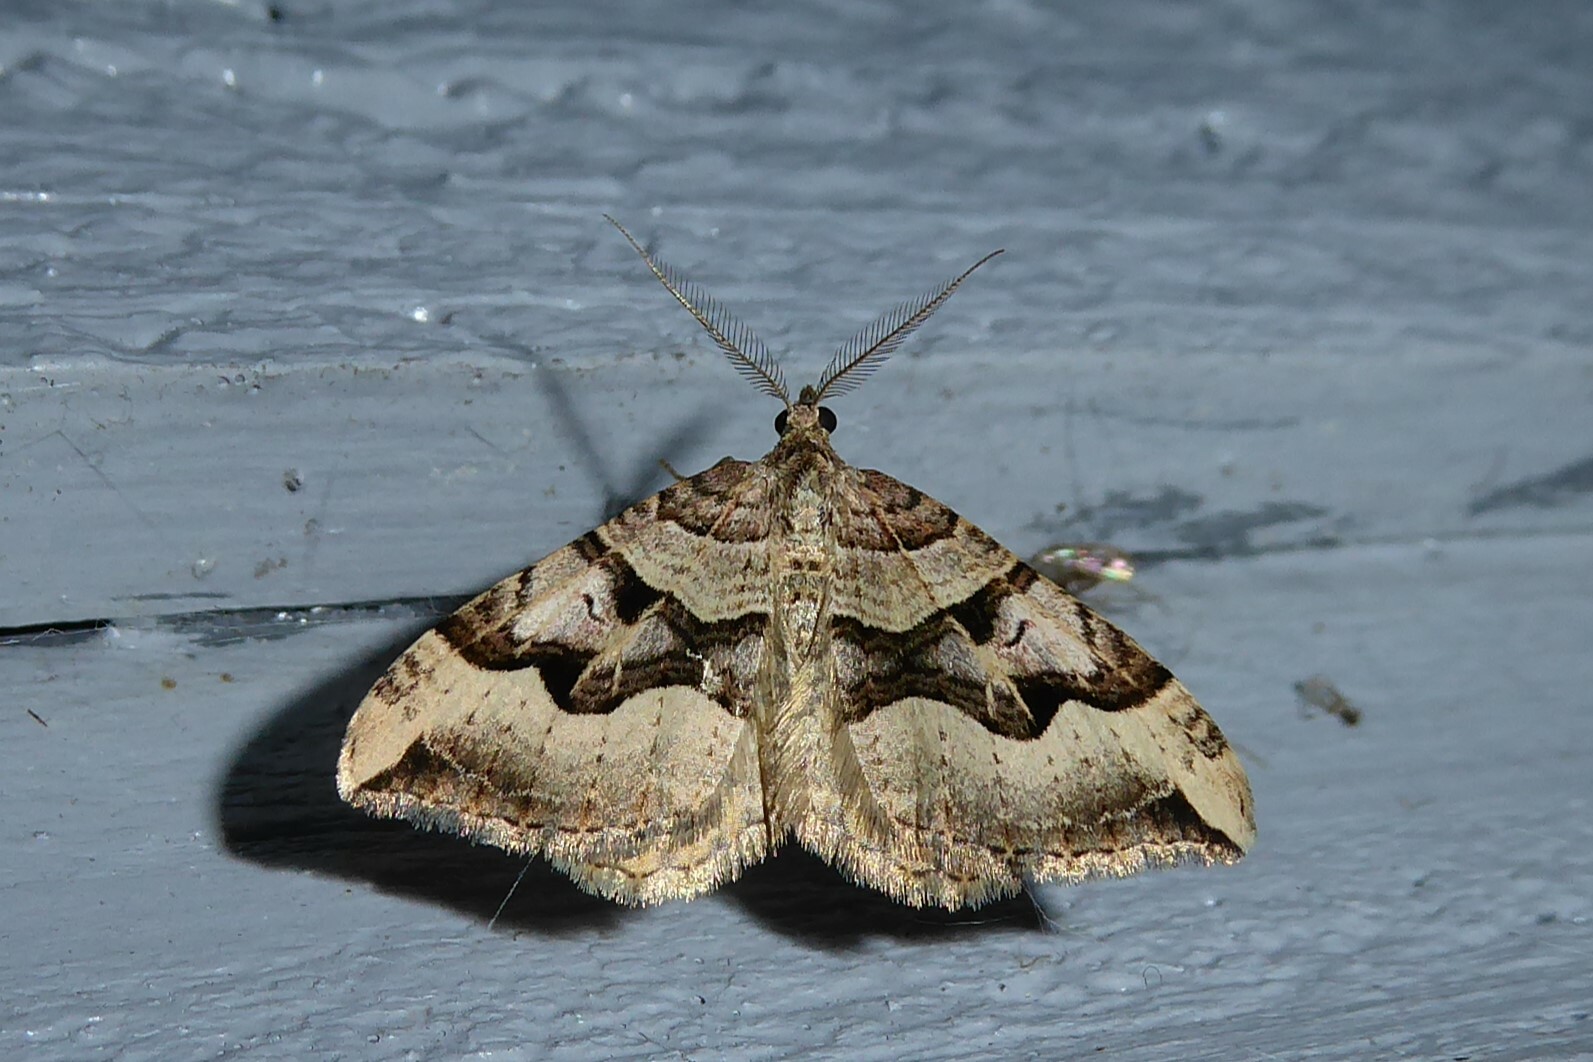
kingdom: Animalia
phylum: Arthropoda
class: Insecta
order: Lepidoptera
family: Geometridae
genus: Xanthorhoe
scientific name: Xanthorhoe semifissata
